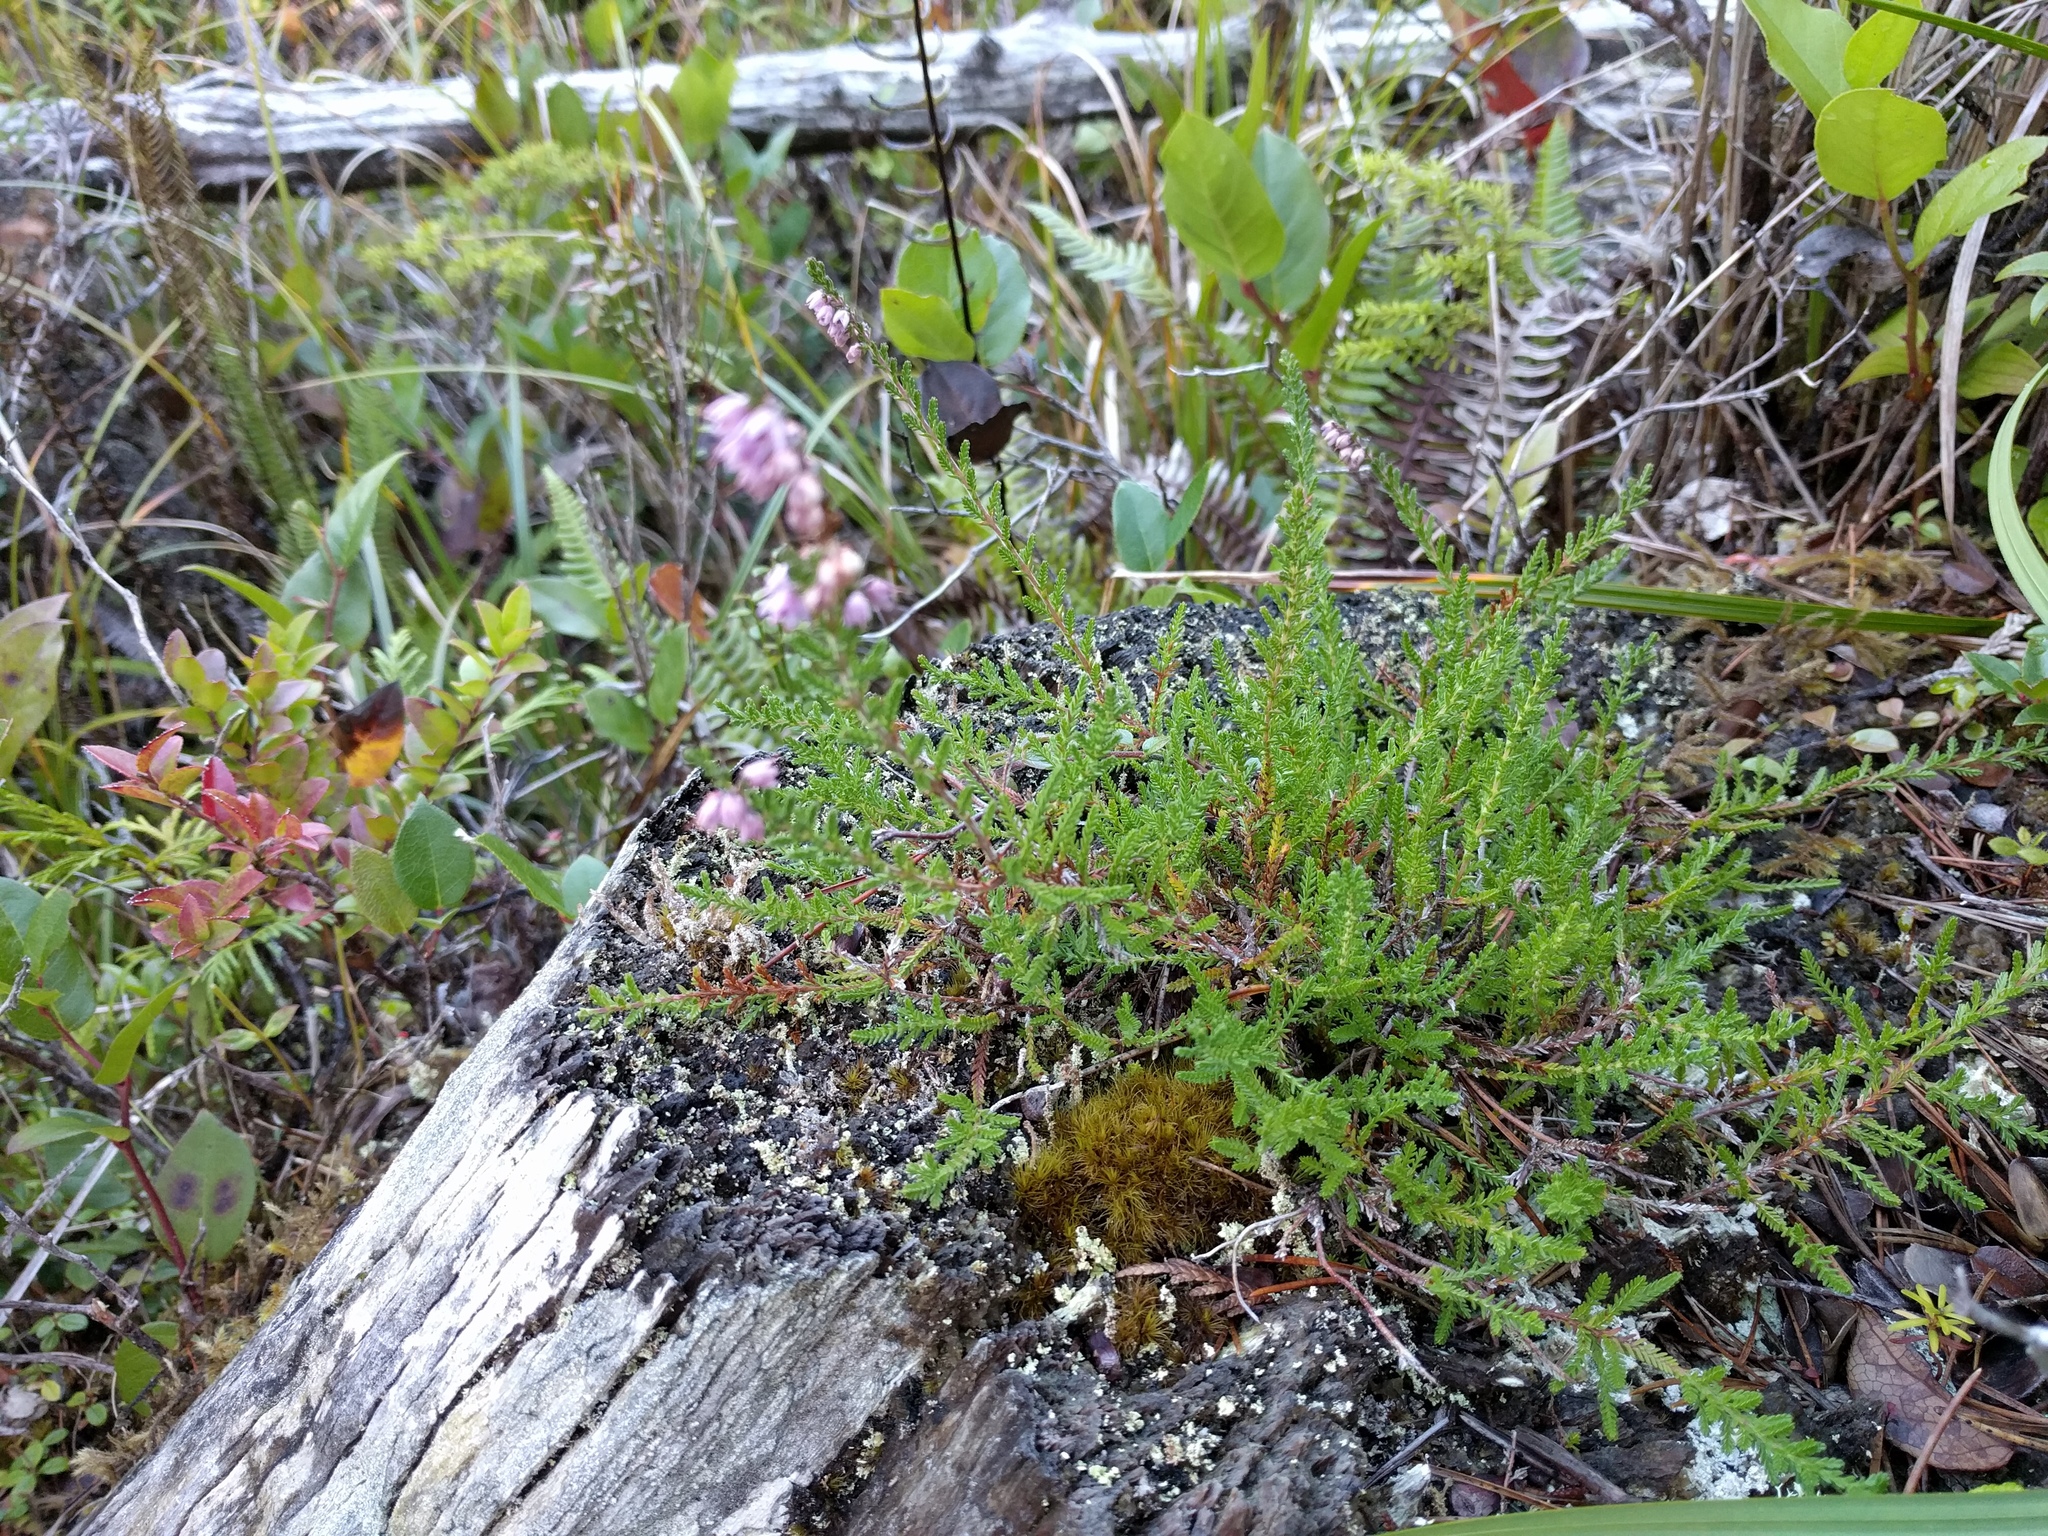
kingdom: Plantae
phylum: Tracheophyta
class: Magnoliopsida
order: Ericales
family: Ericaceae
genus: Calluna
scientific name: Calluna vulgaris
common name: Heather
